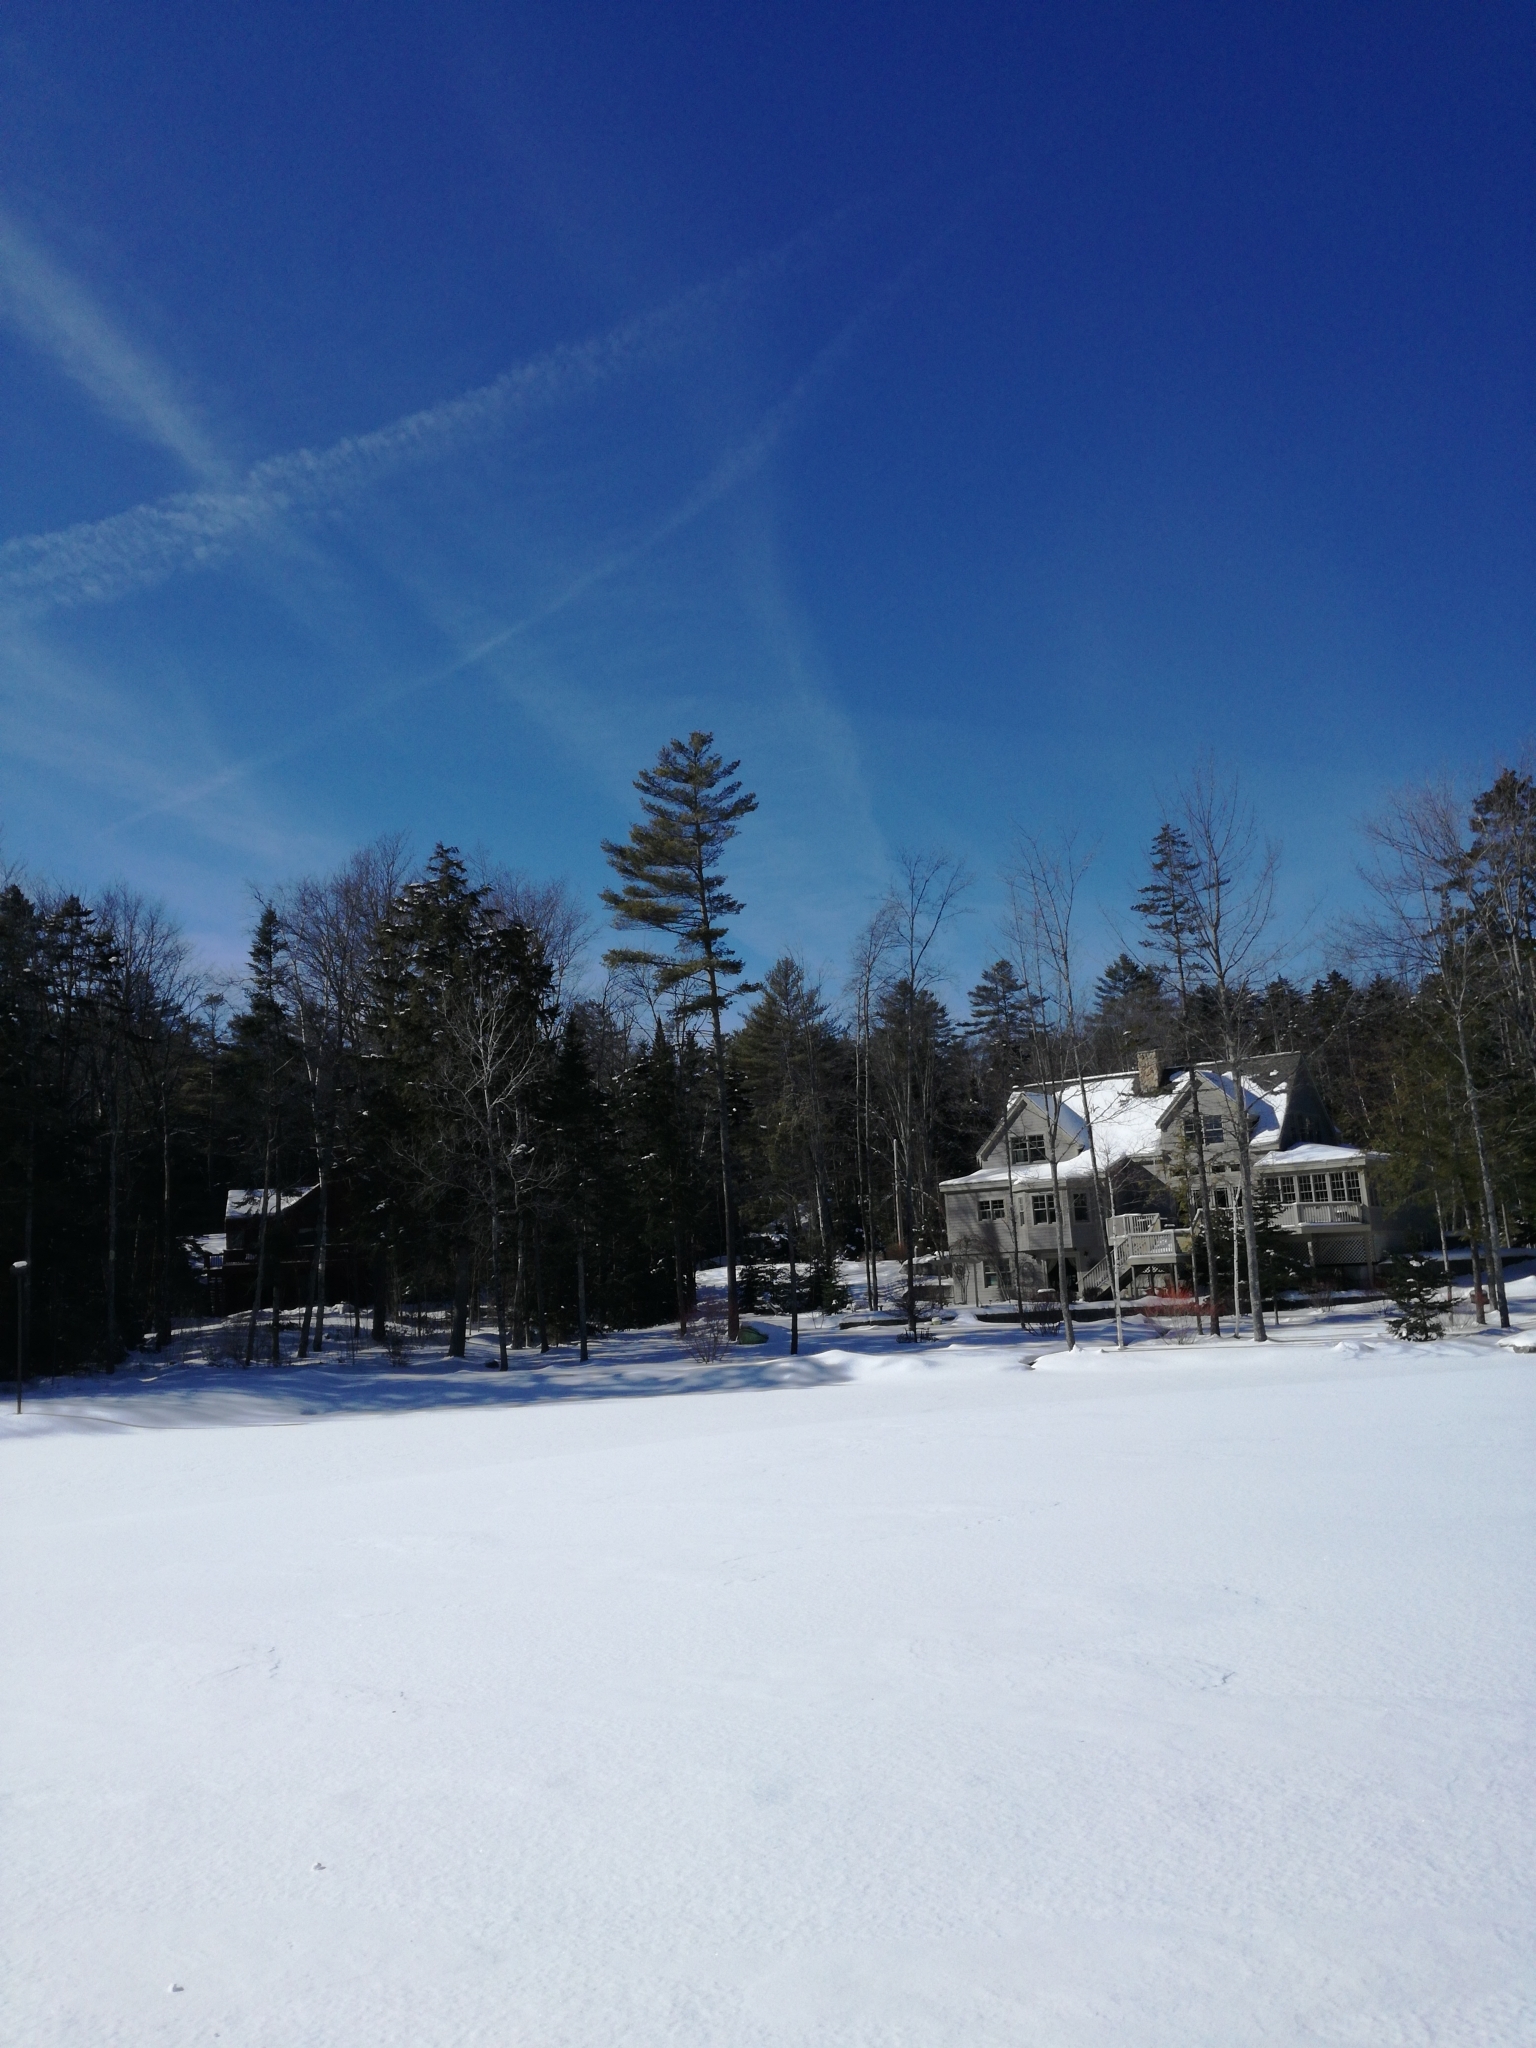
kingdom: Plantae
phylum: Tracheophyta
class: Pinopsida
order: Pinales
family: Pinaceae
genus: Pinus
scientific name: Pinus strobus
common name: Weymouth pine
